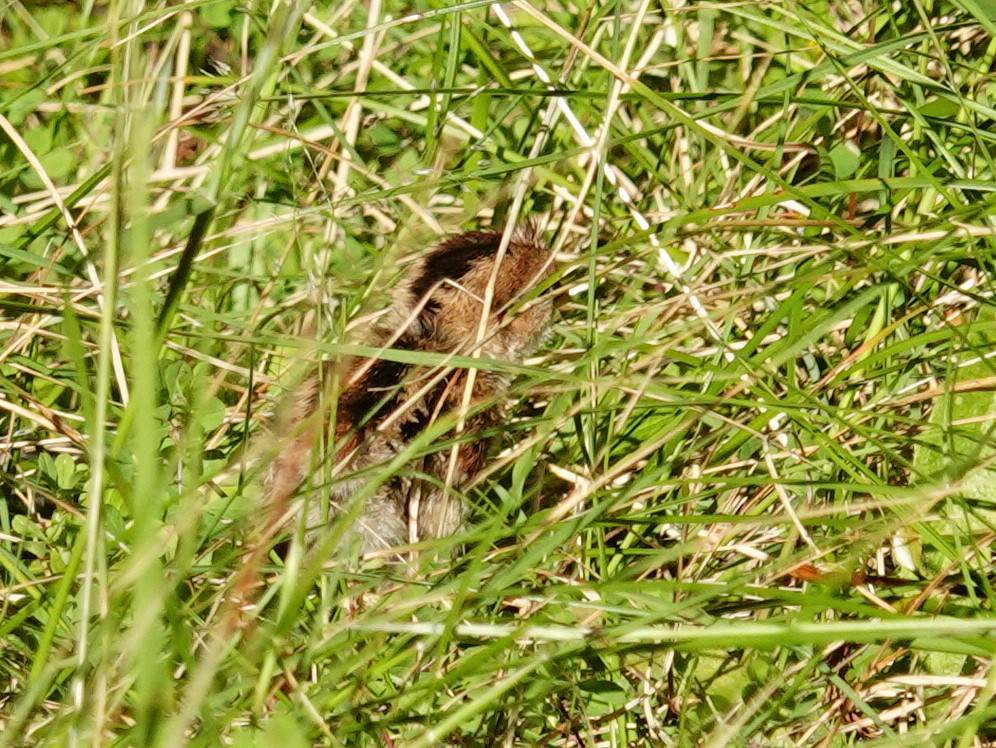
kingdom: Animalia
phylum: Chordata
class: Aves
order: Galliformes
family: Odontophoridae
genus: Callipepla
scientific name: Callipepla californica
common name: California quail
